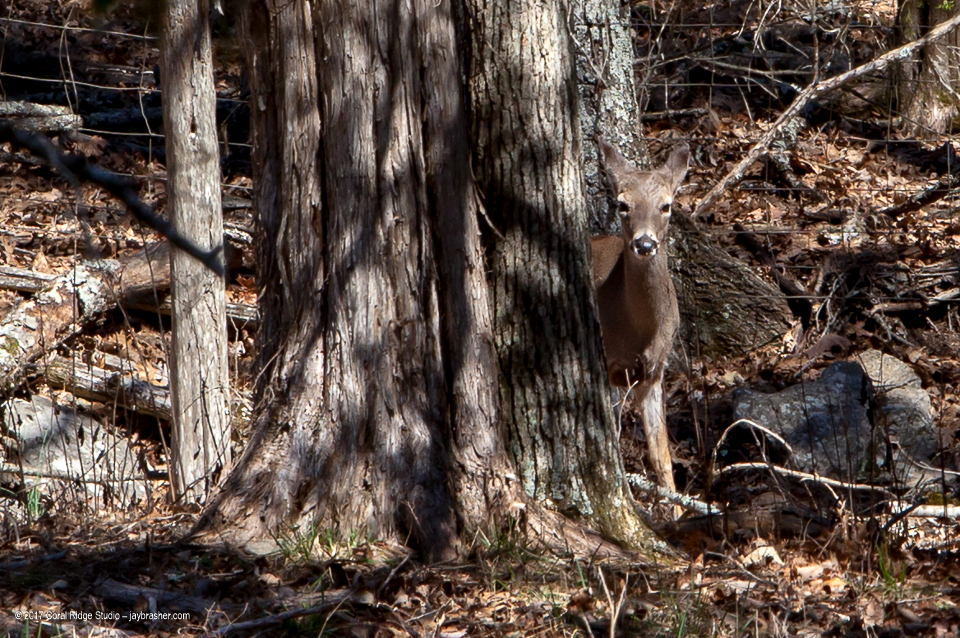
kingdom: Animalia
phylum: Chordata
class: Mammalia
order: Artiodactyla
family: Cervidae
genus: Odocoileus
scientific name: Odocoileus virginianus
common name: White-tailed deer
